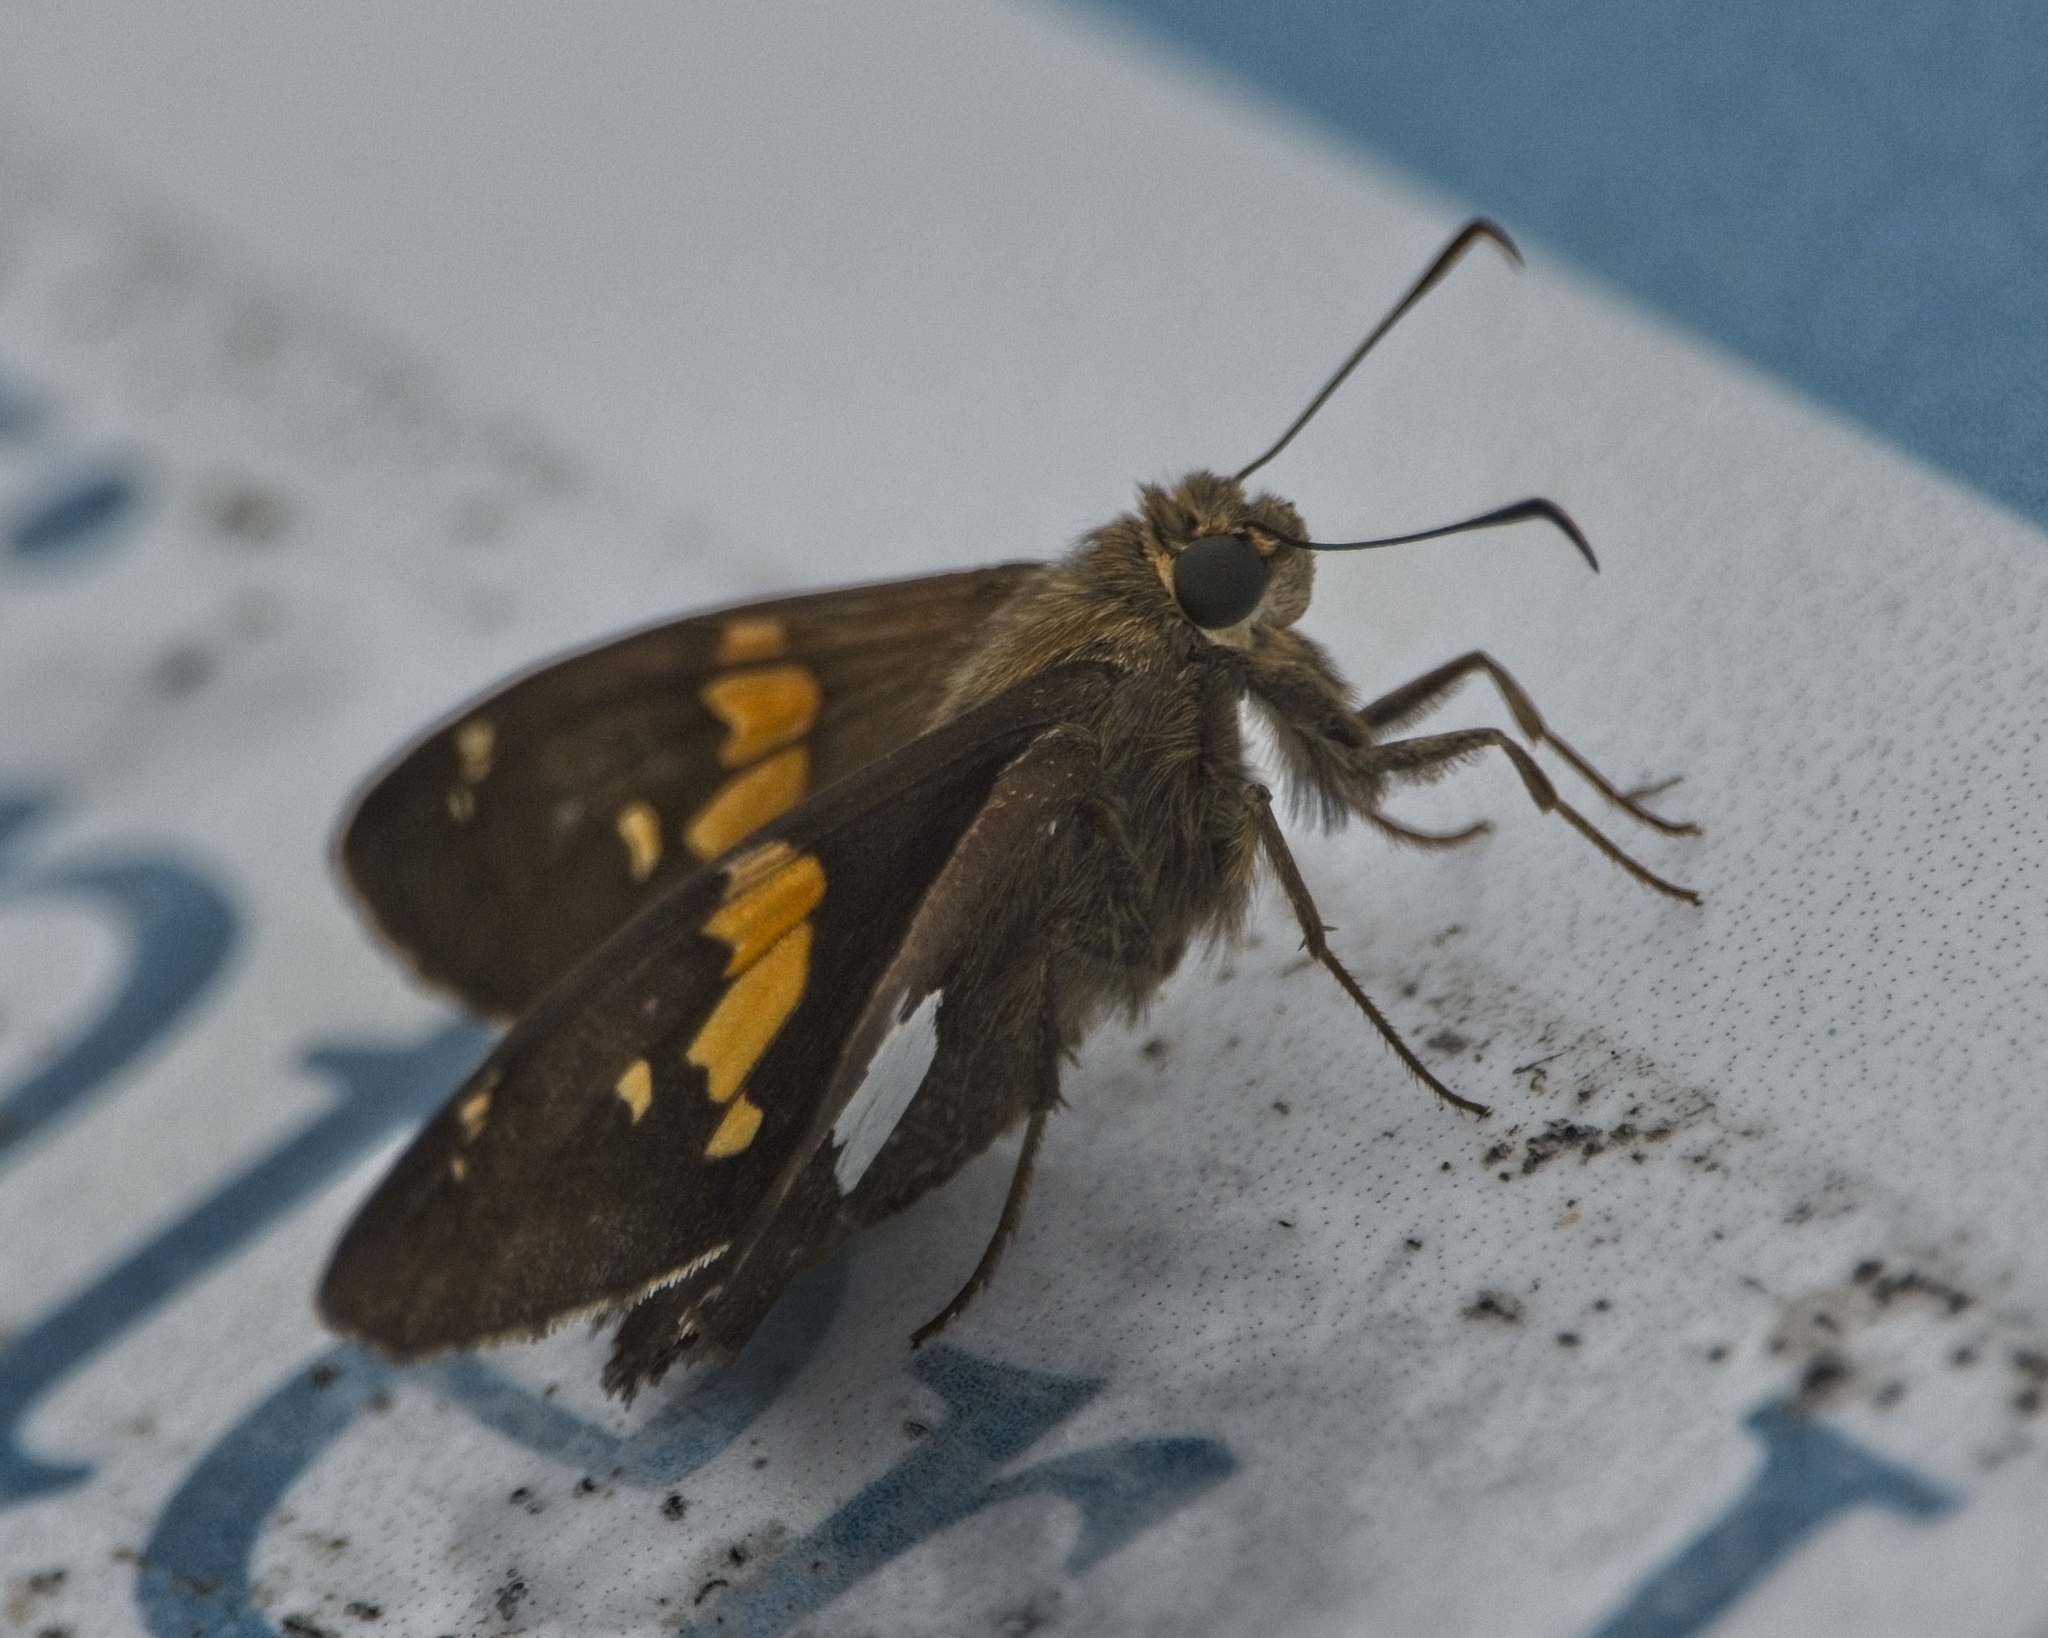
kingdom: Animalia
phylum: Arthropoda
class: Insecta
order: Lepidoptera
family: Hesperiidae
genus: Epargyreus
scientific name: Epargyreus clarus
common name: Silver-spotted skipper
